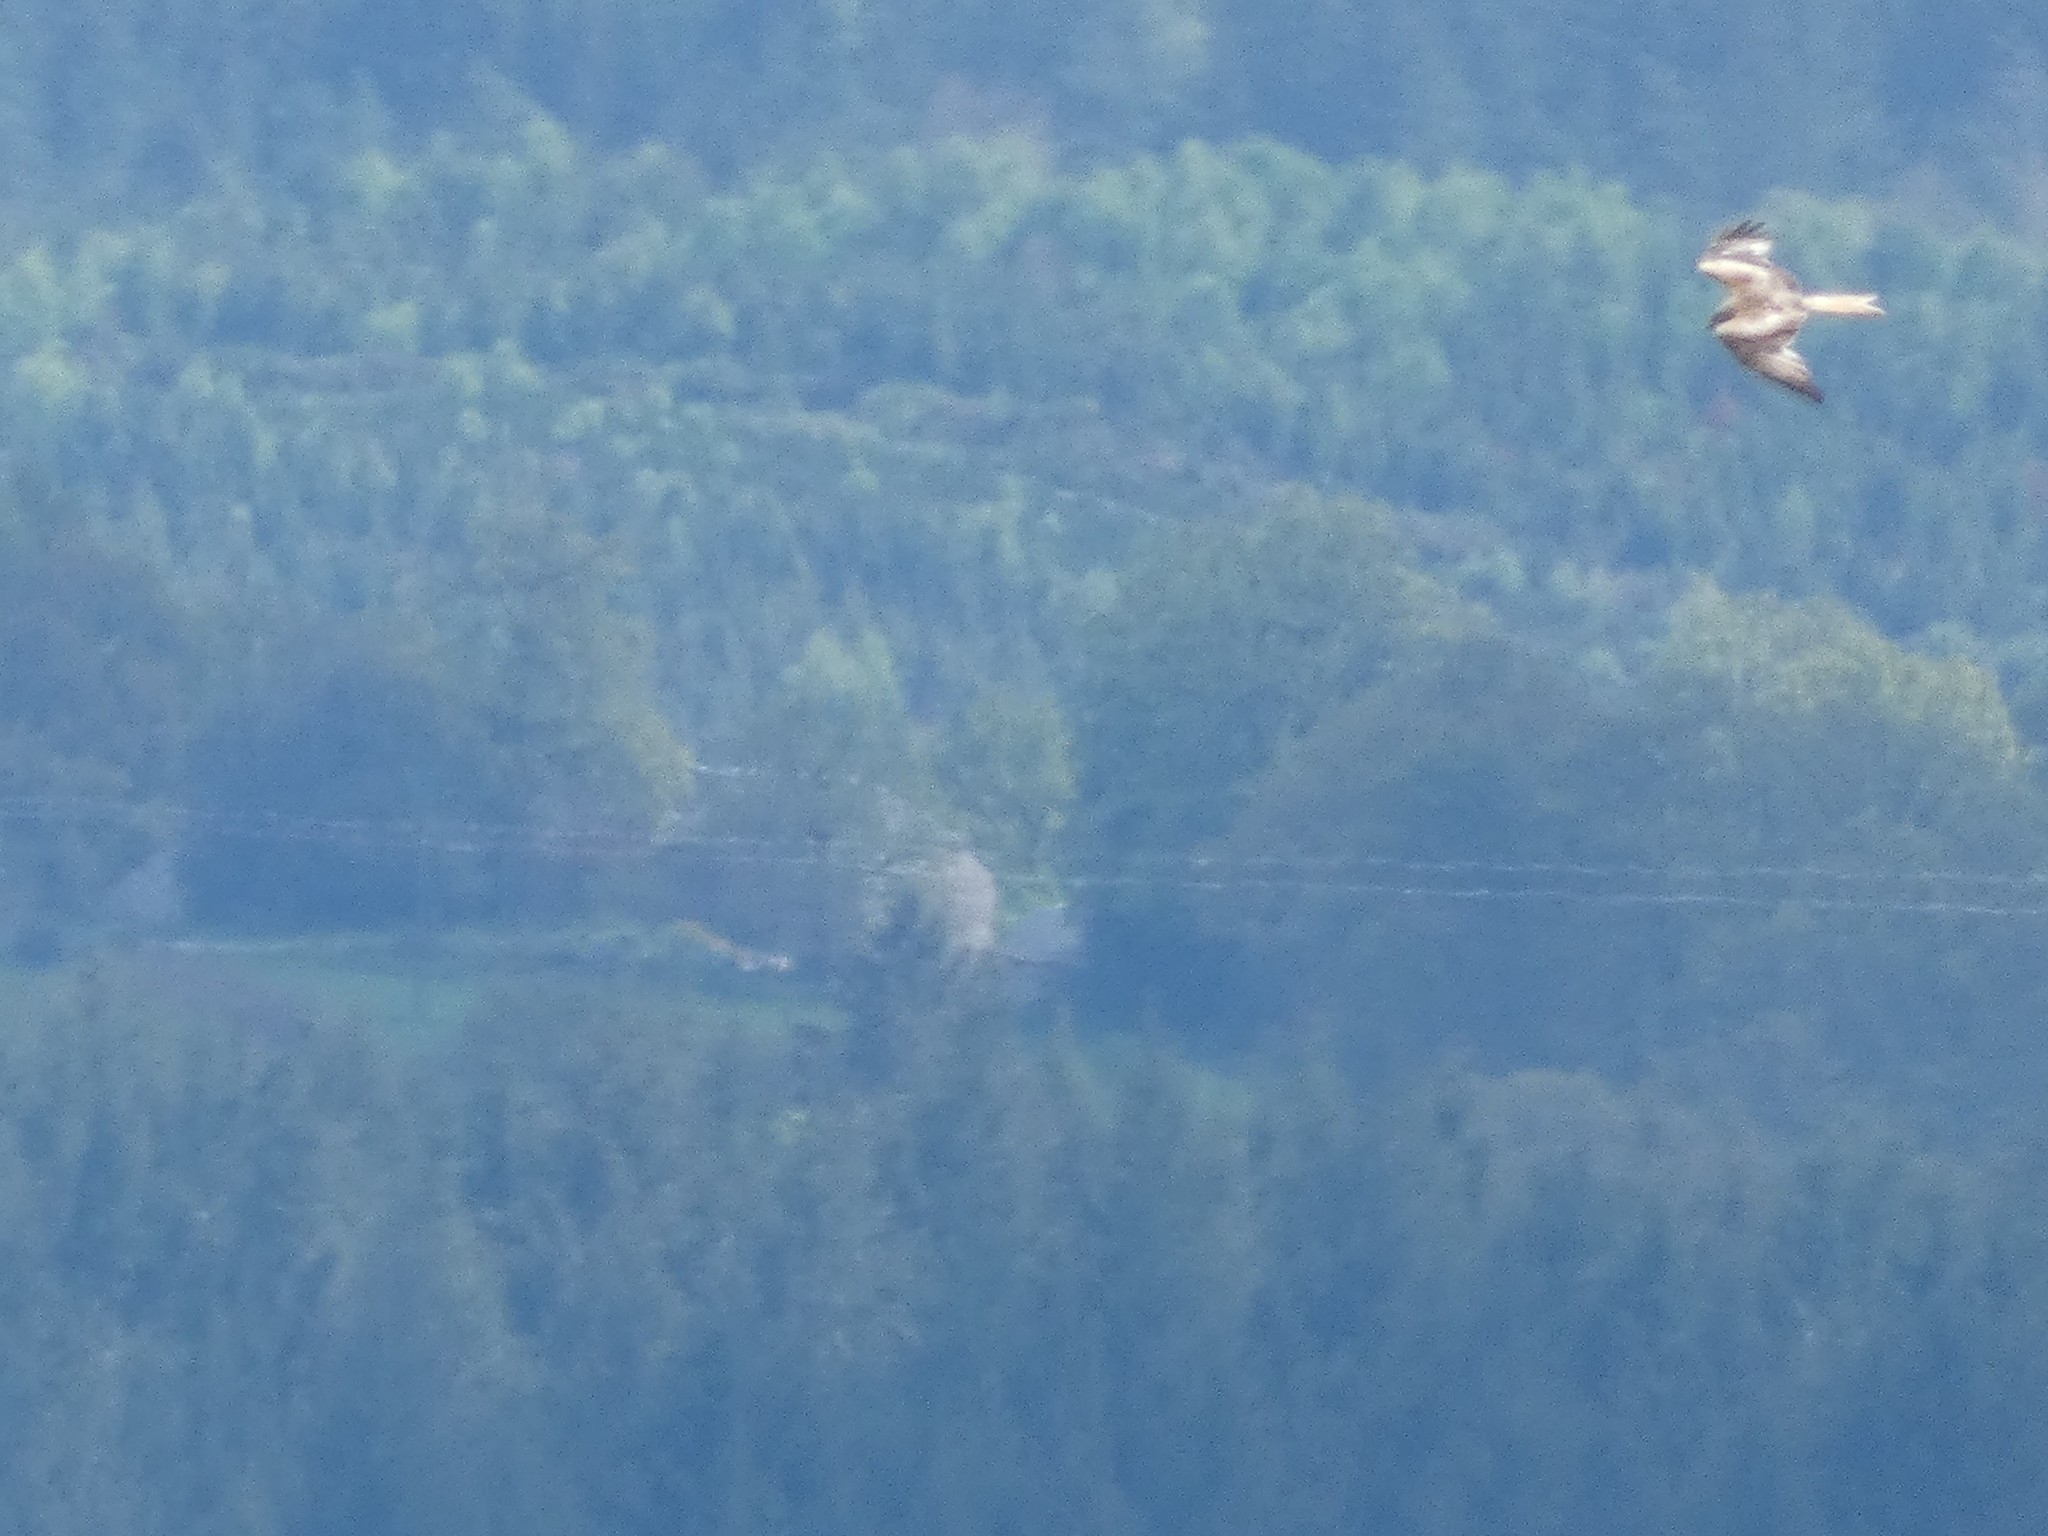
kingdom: Animalia
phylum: Chordata
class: Aves
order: Accipitriformes
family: Accipitridae
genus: Milvus
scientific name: Milvus milvus
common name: Red kite
